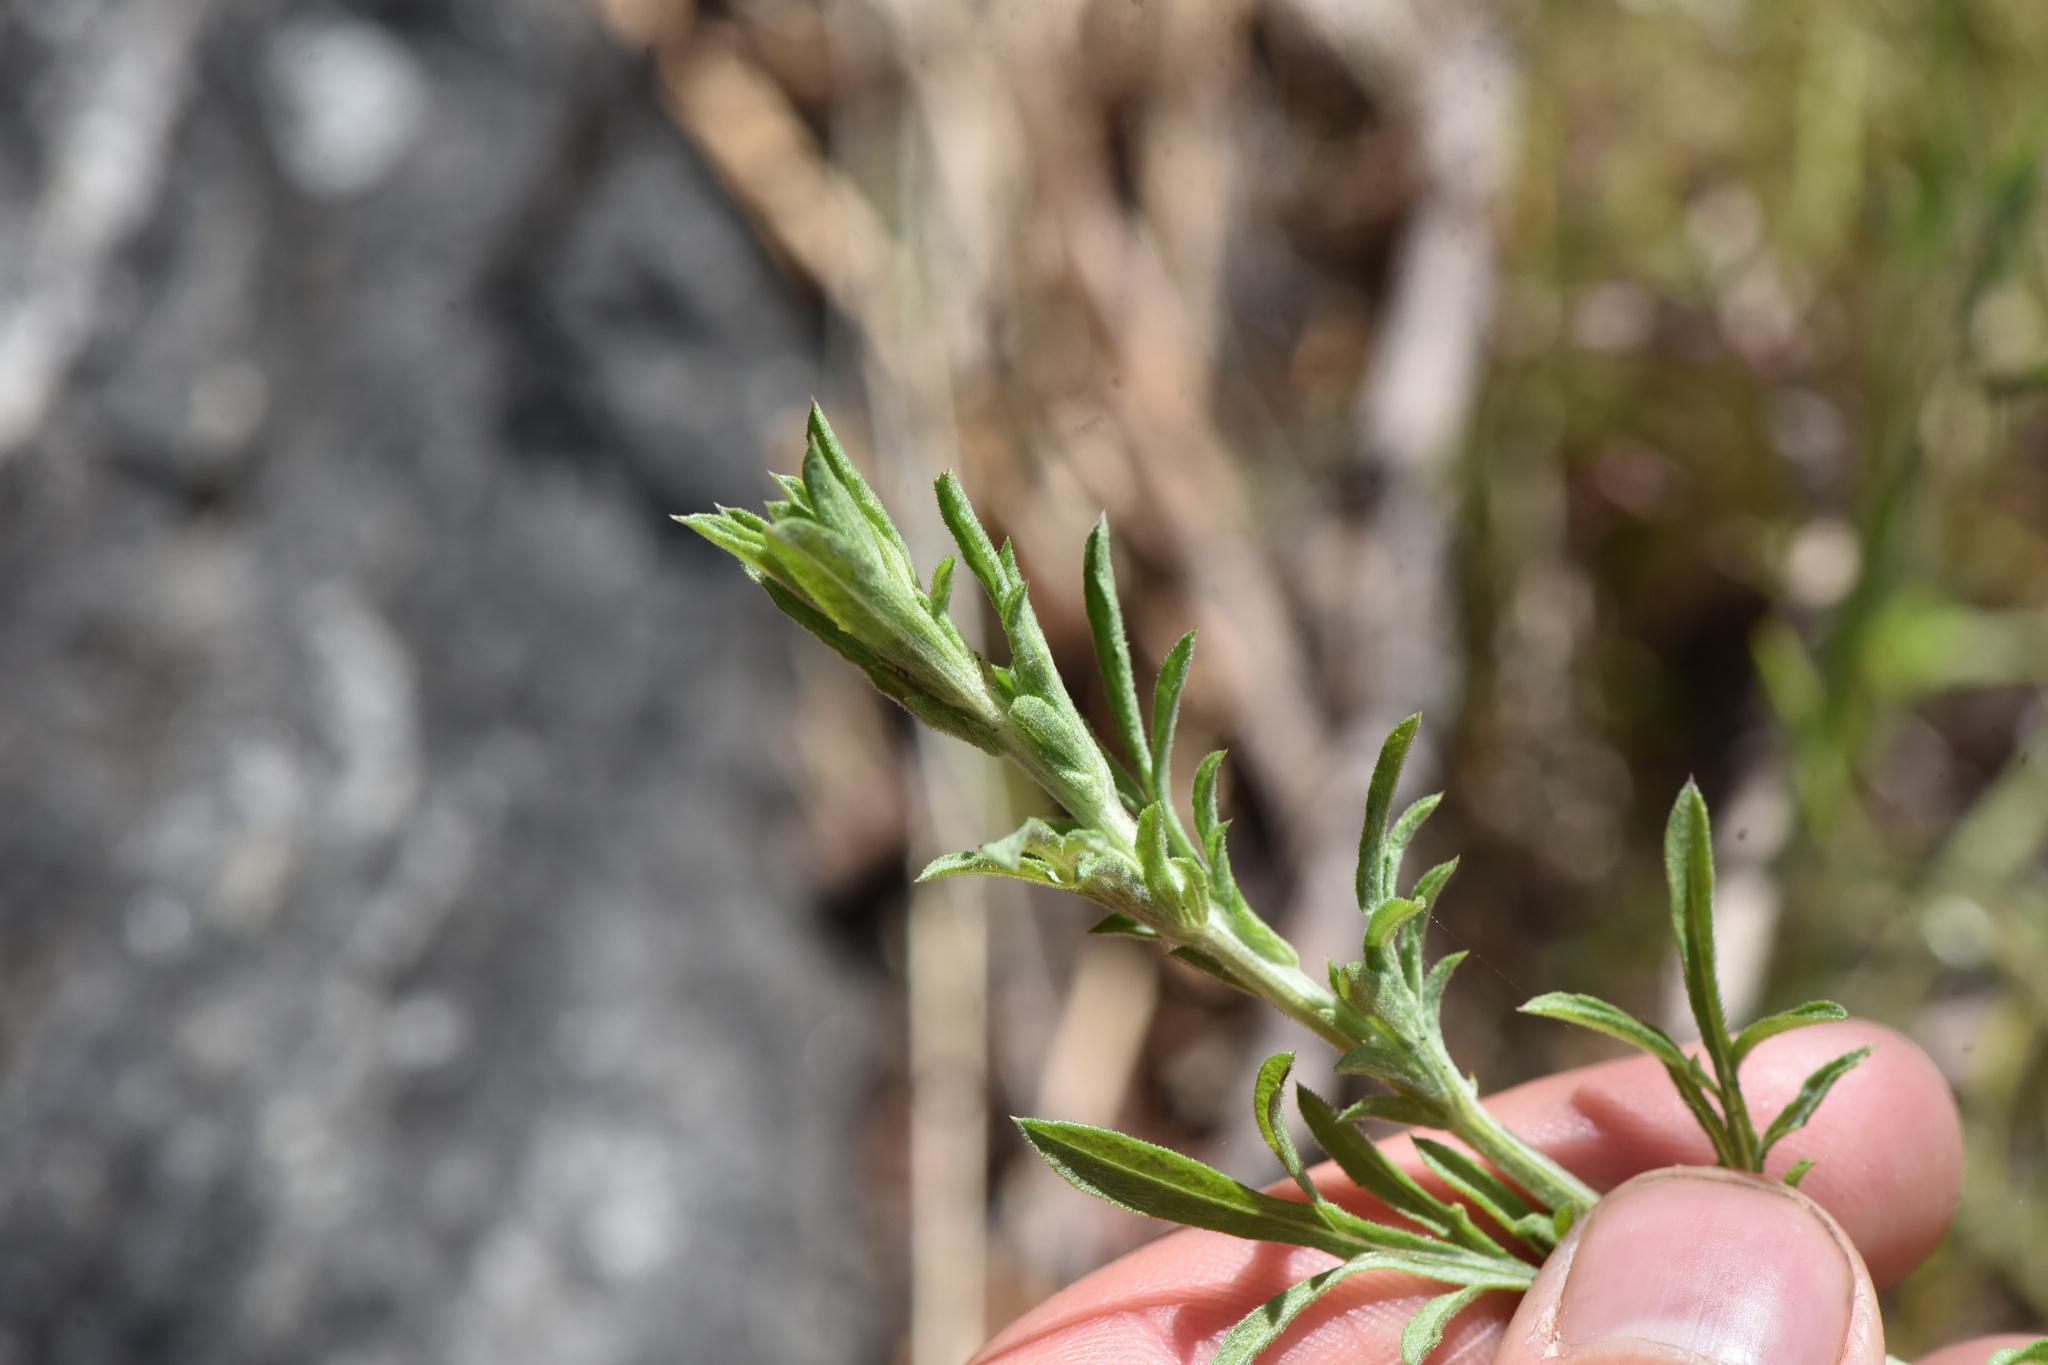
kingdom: Plantae
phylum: Tracheophyta
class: Magnoliopsida
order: Asterales
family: Asteraceae
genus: Centaurea
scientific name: Centaurea diffusa
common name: Diffuse knapweed
